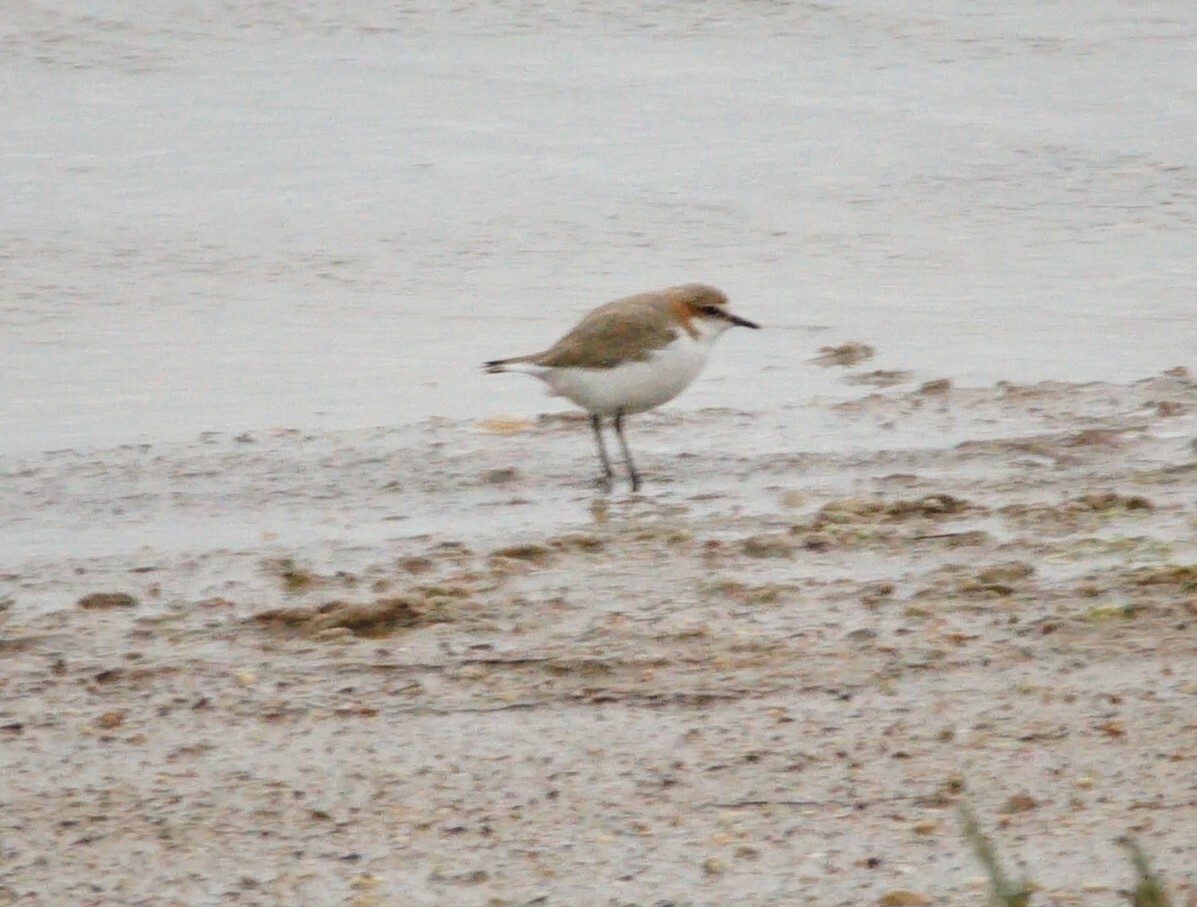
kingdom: Animalia
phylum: Chordata
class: Aves
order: Charadriiformes
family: Charadriidae
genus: Anarhynchus
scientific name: Anarhynchus
